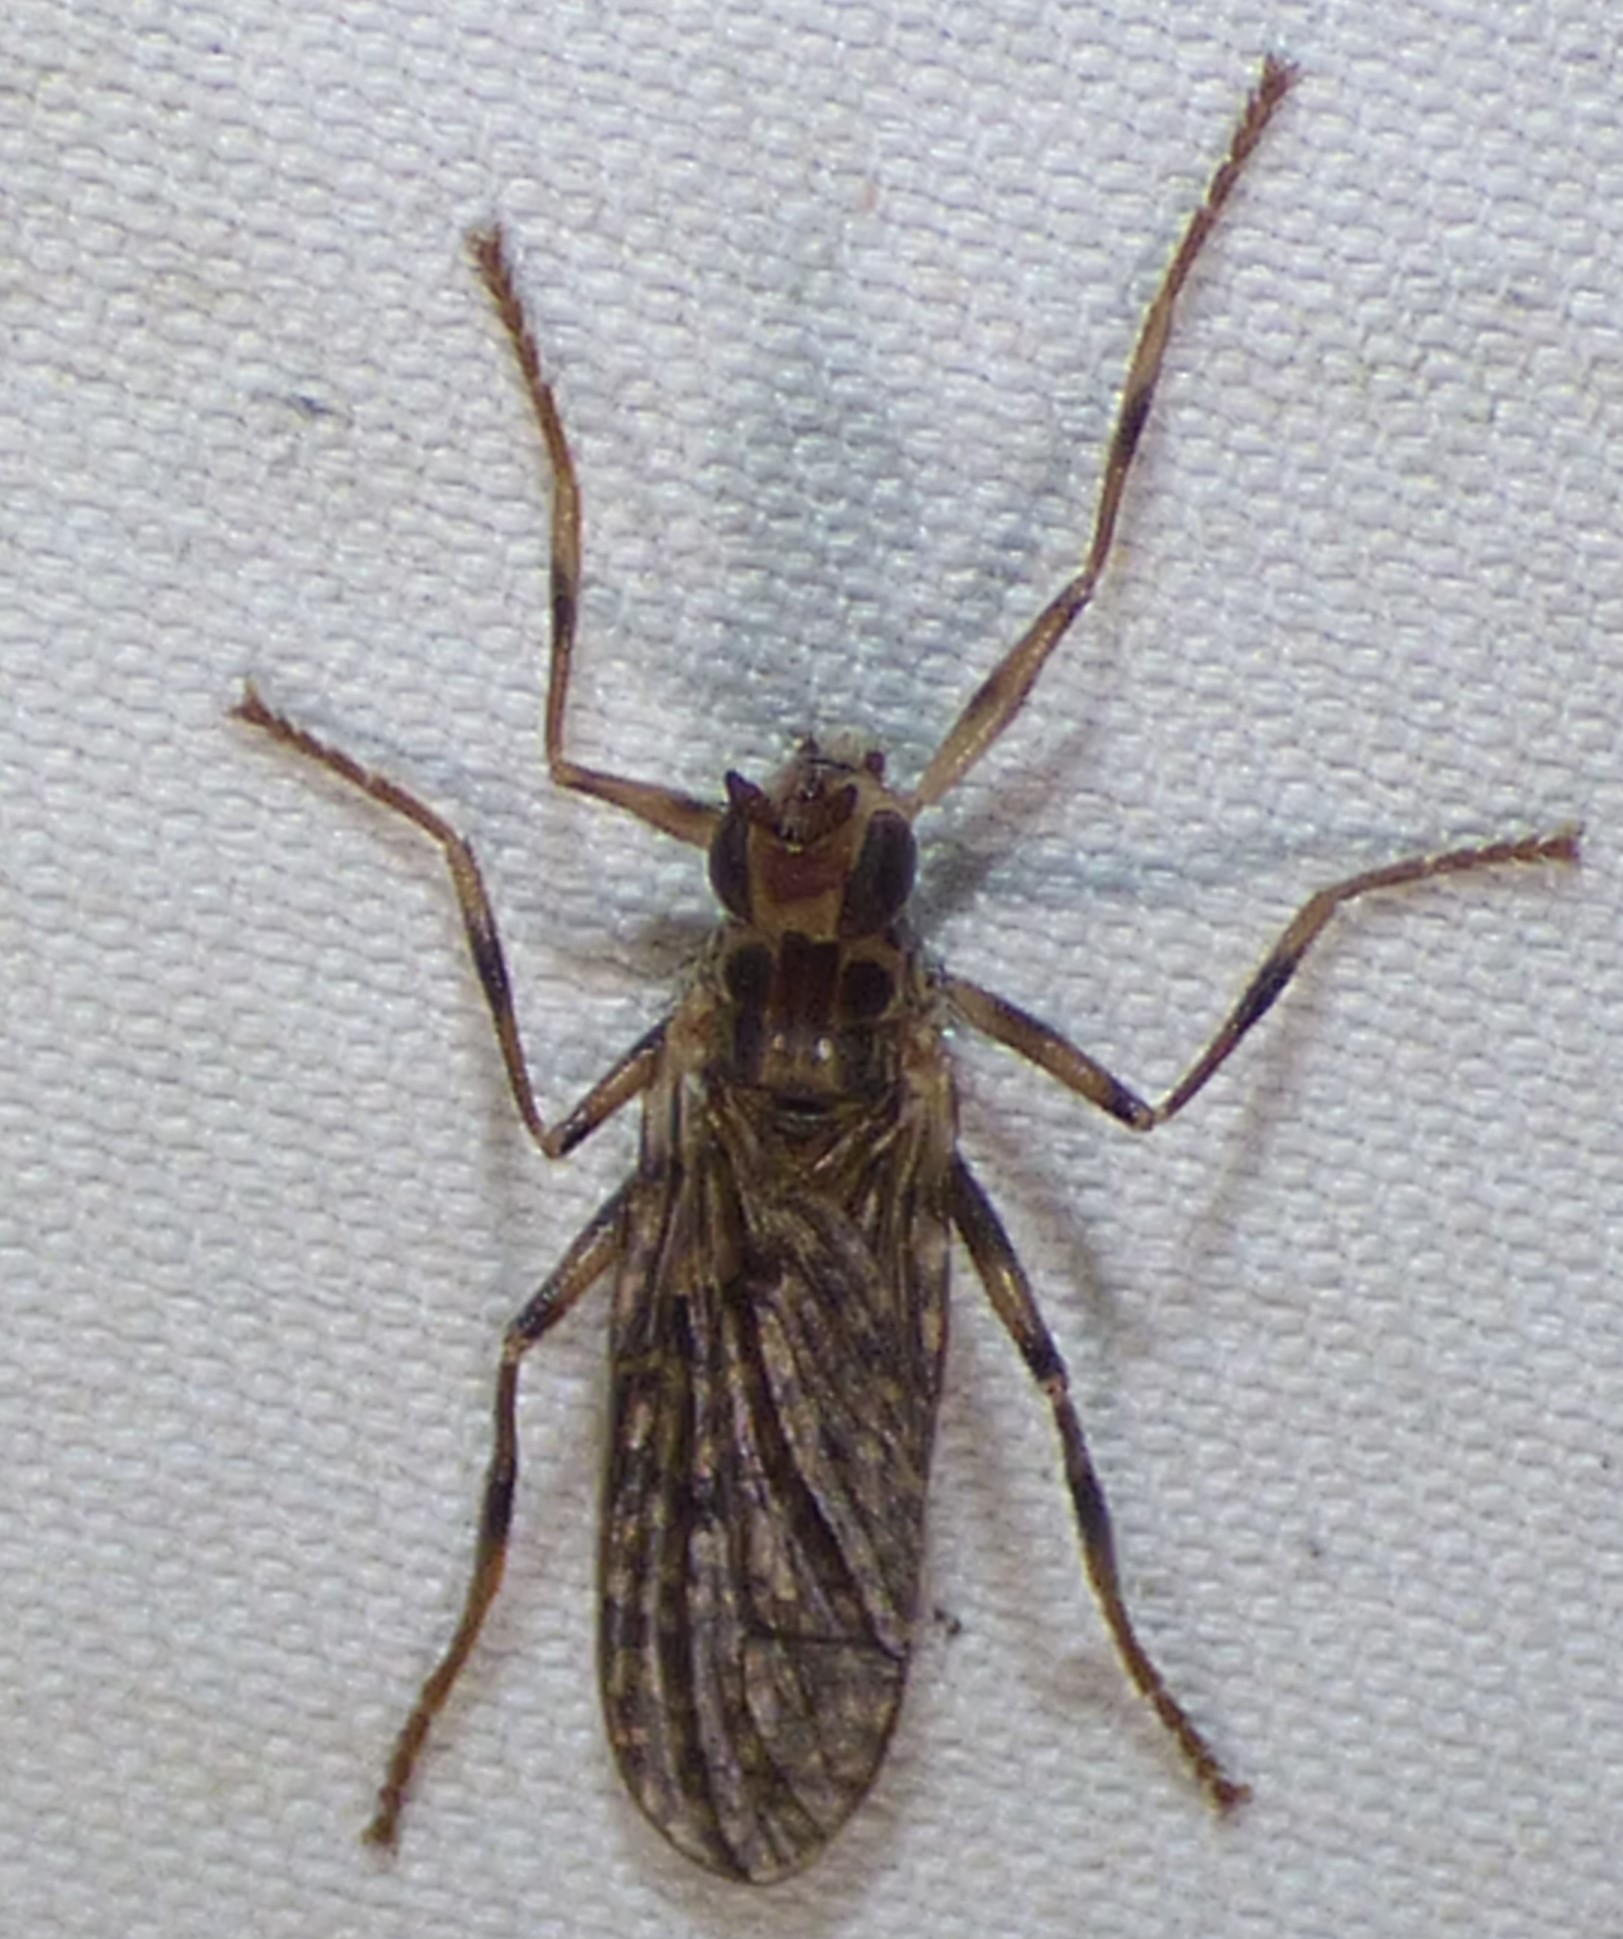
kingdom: Animalia
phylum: Arthropoda
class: Insecta
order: Diptera
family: Pyrgotidae
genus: Boreothrinax
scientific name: Boreothrinax
